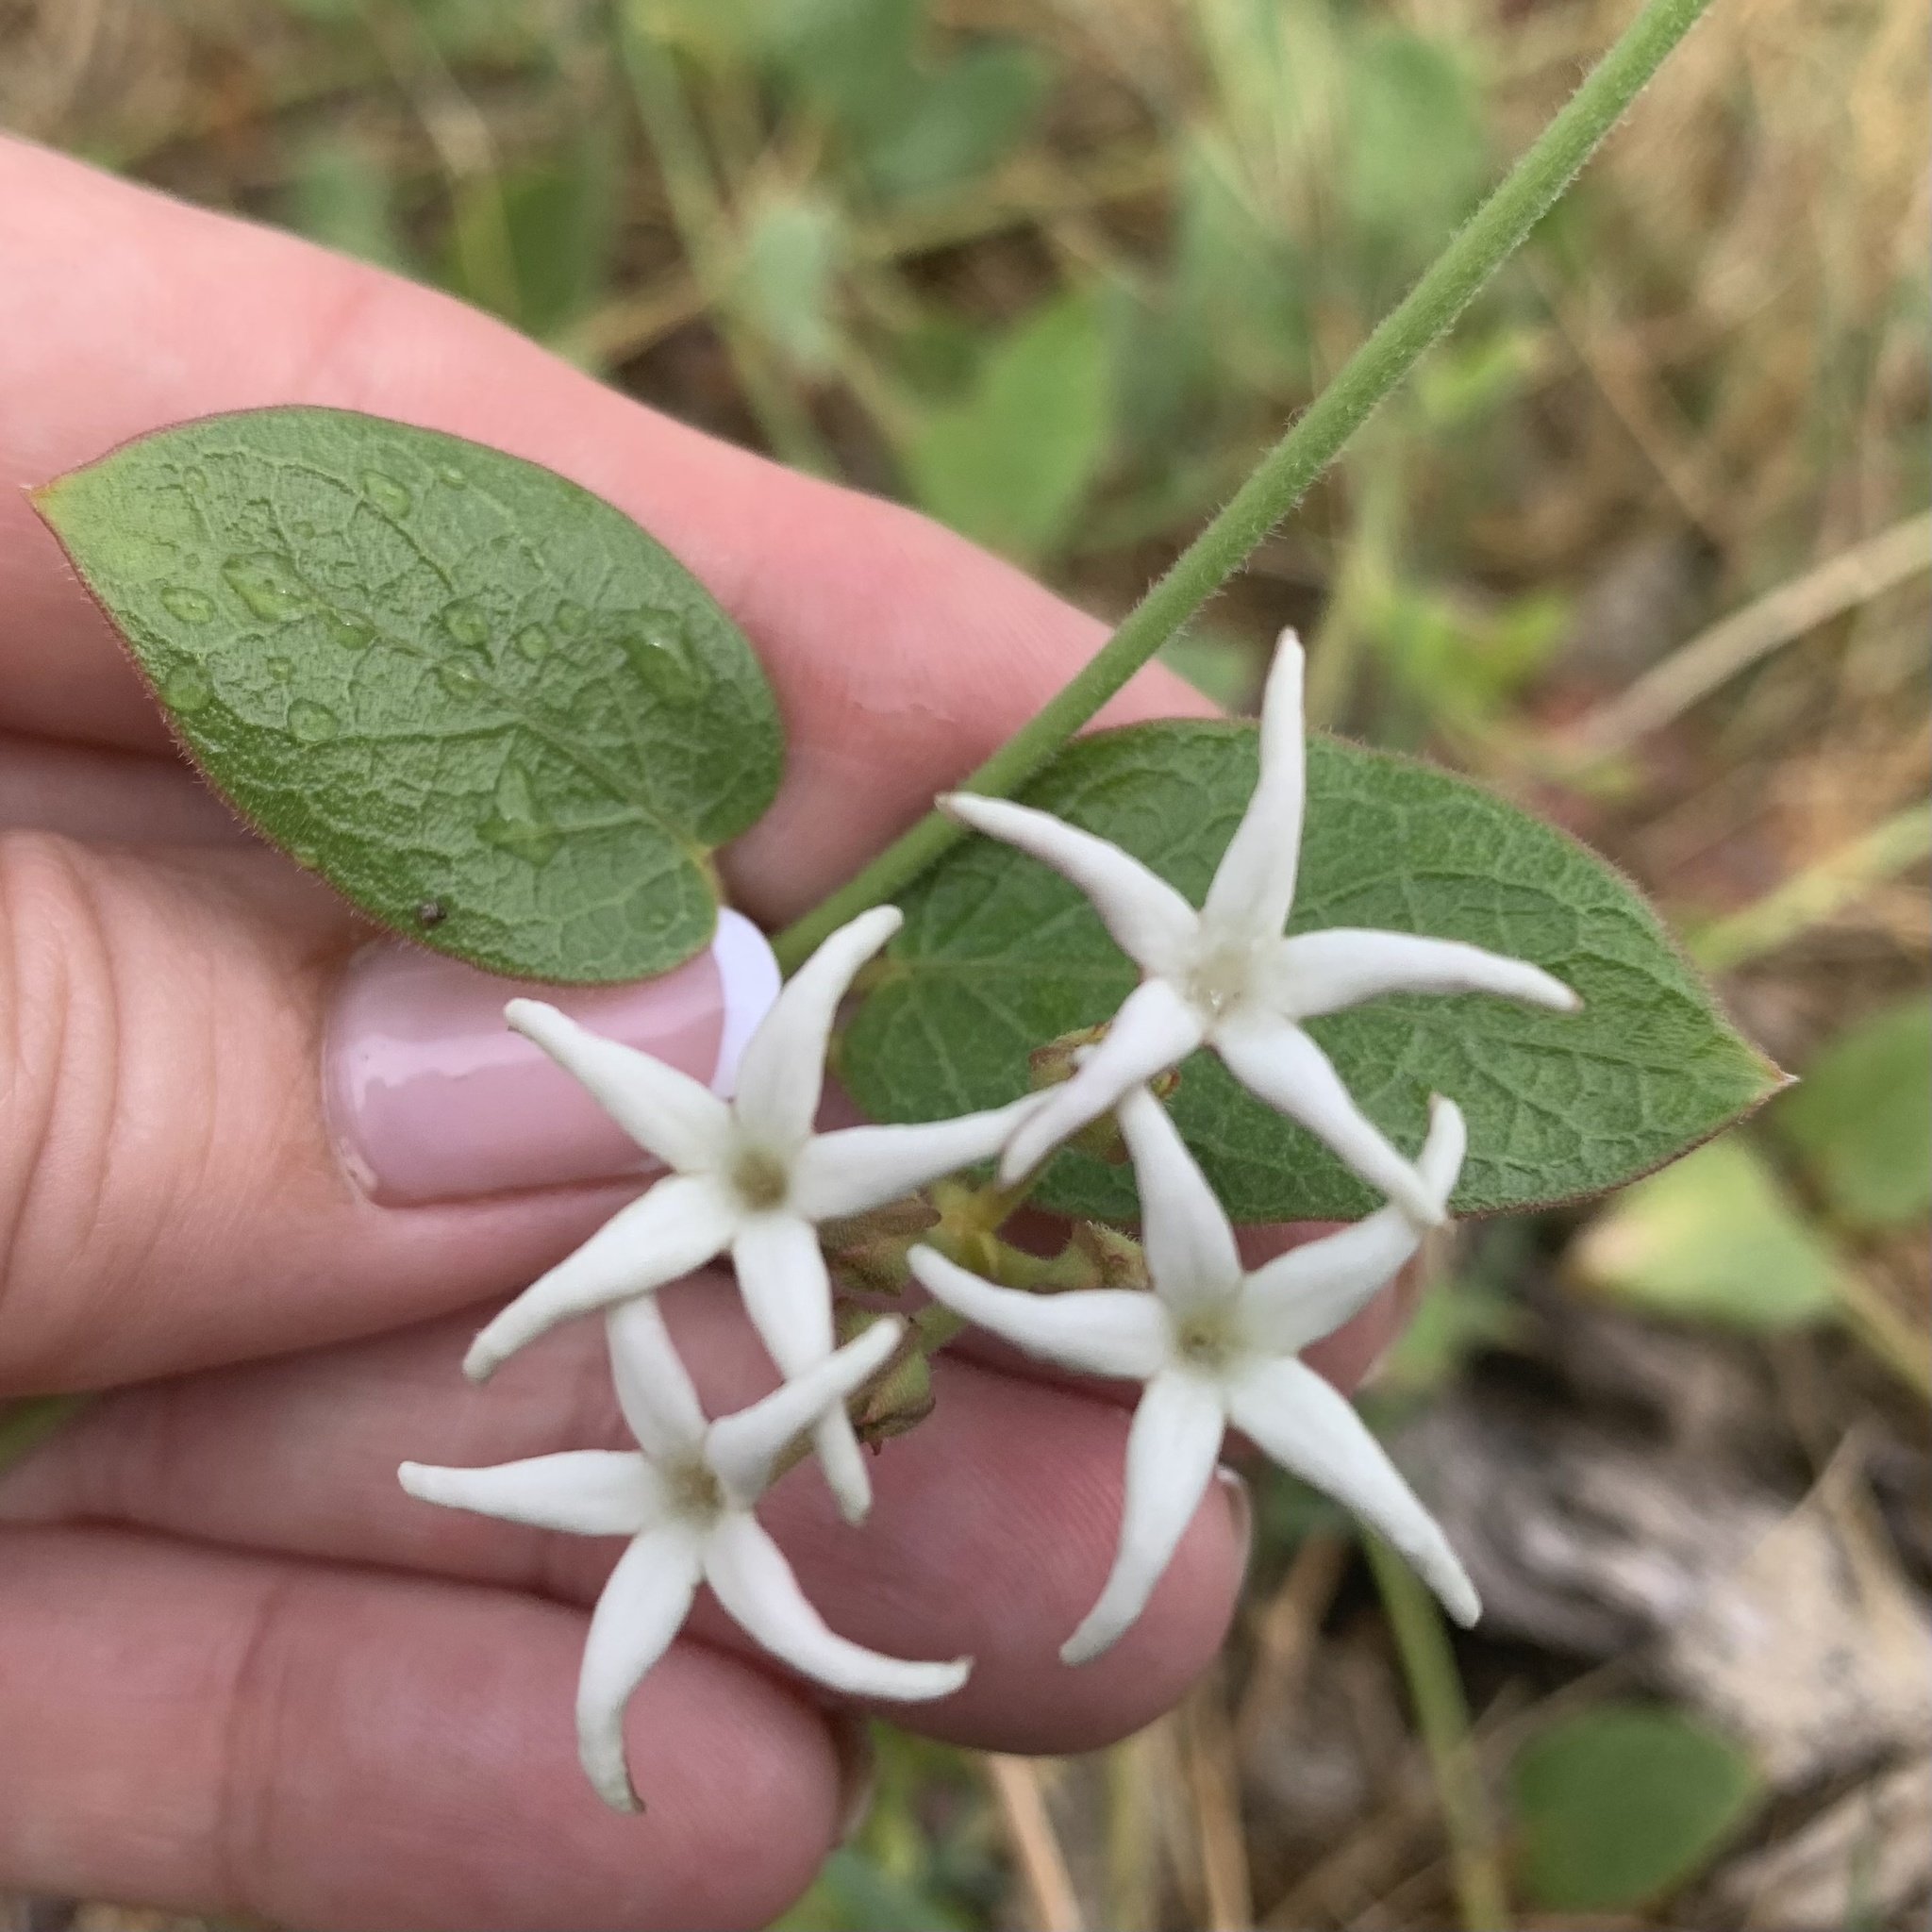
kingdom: Plantae
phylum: Tracheophyta
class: Magnoliopsida
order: Gentianales
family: Apocynaceae
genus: Orthanthera
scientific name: Orthanthera jasminiflora
